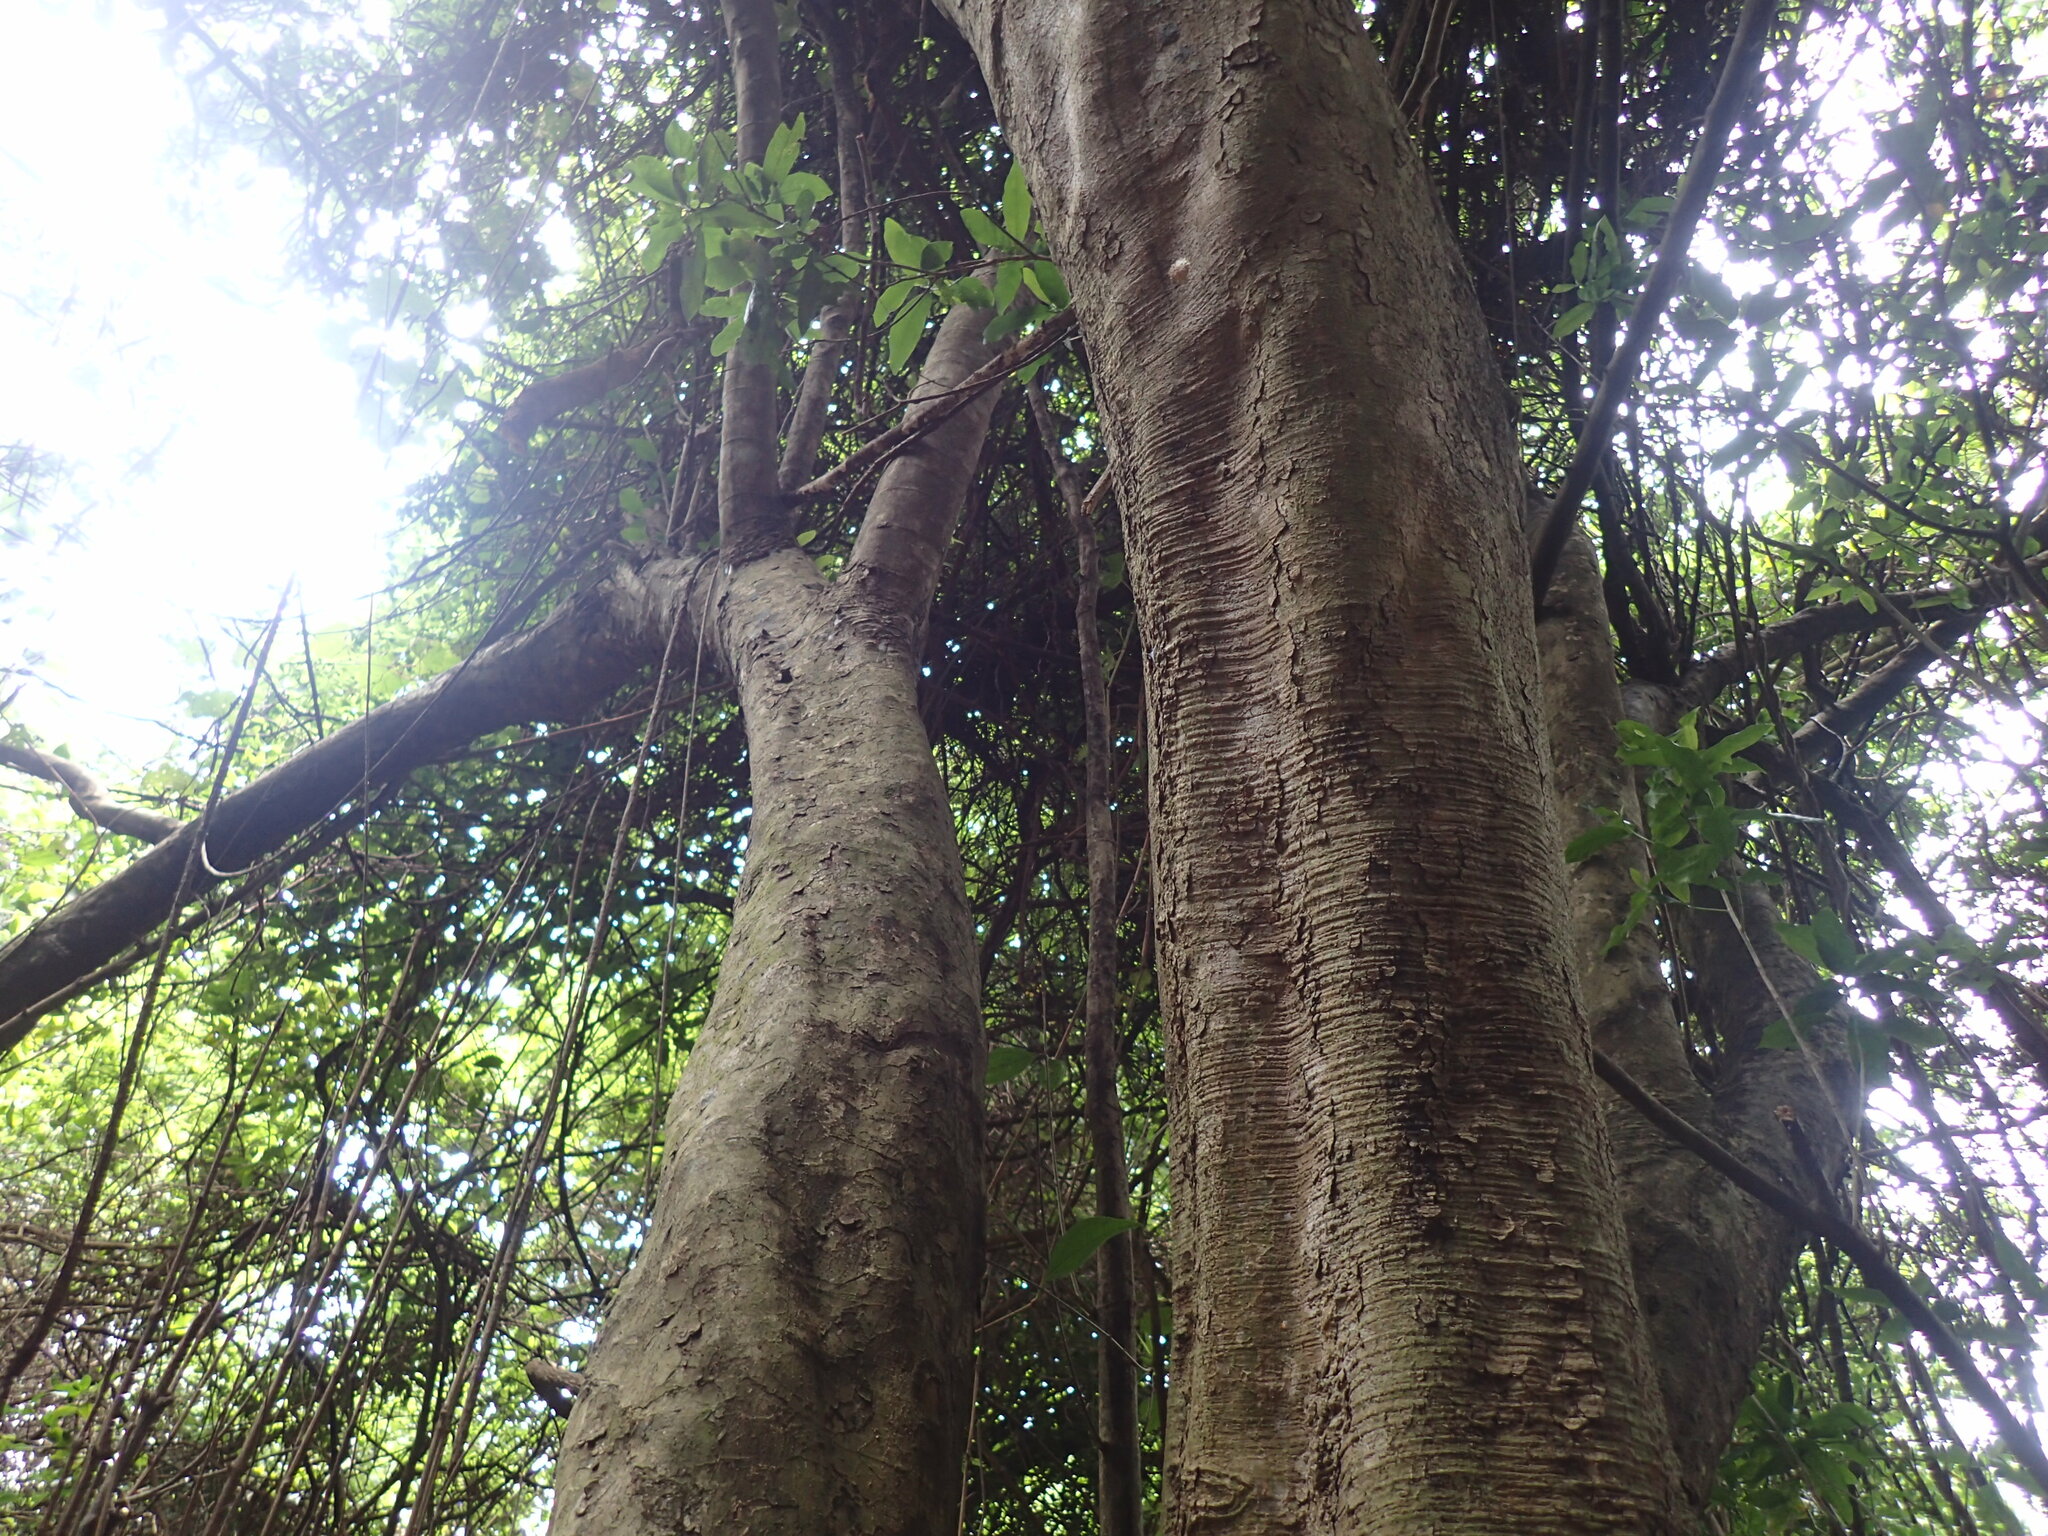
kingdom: Plantae
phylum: Tracheophyta
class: Magnoliopsida
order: Gentianales
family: Loganiaceae
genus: Strychnos
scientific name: Strychnos gerrardii
